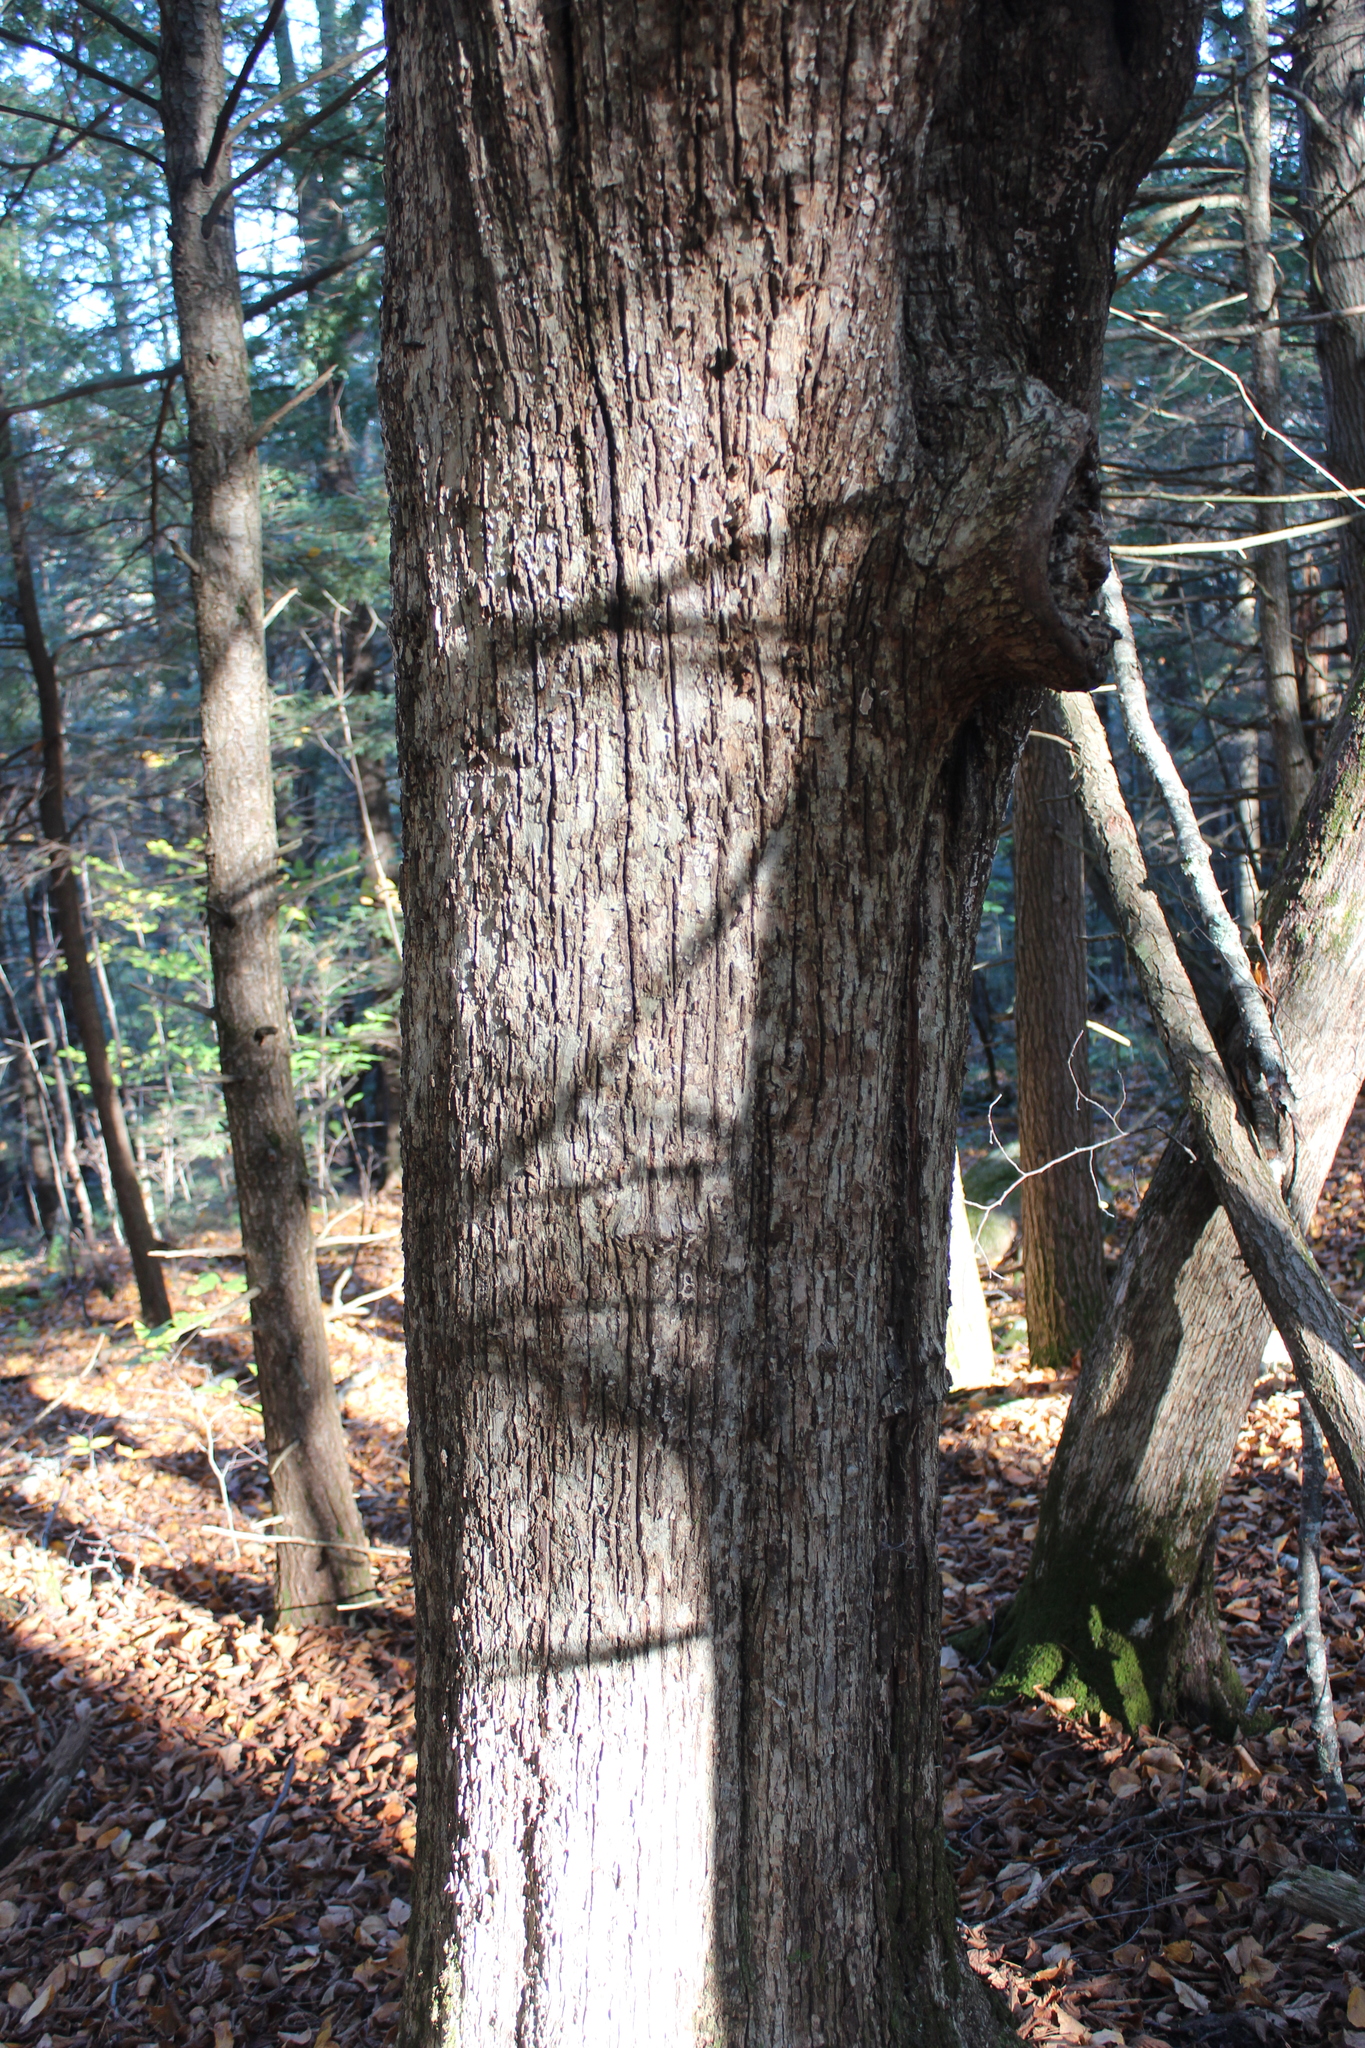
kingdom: Plantae
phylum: Tracheophyta
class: Magnoliopsida
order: Fagales
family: Betulaceae
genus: Ostrya
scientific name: Ostrya virginiana
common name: Ironwood
